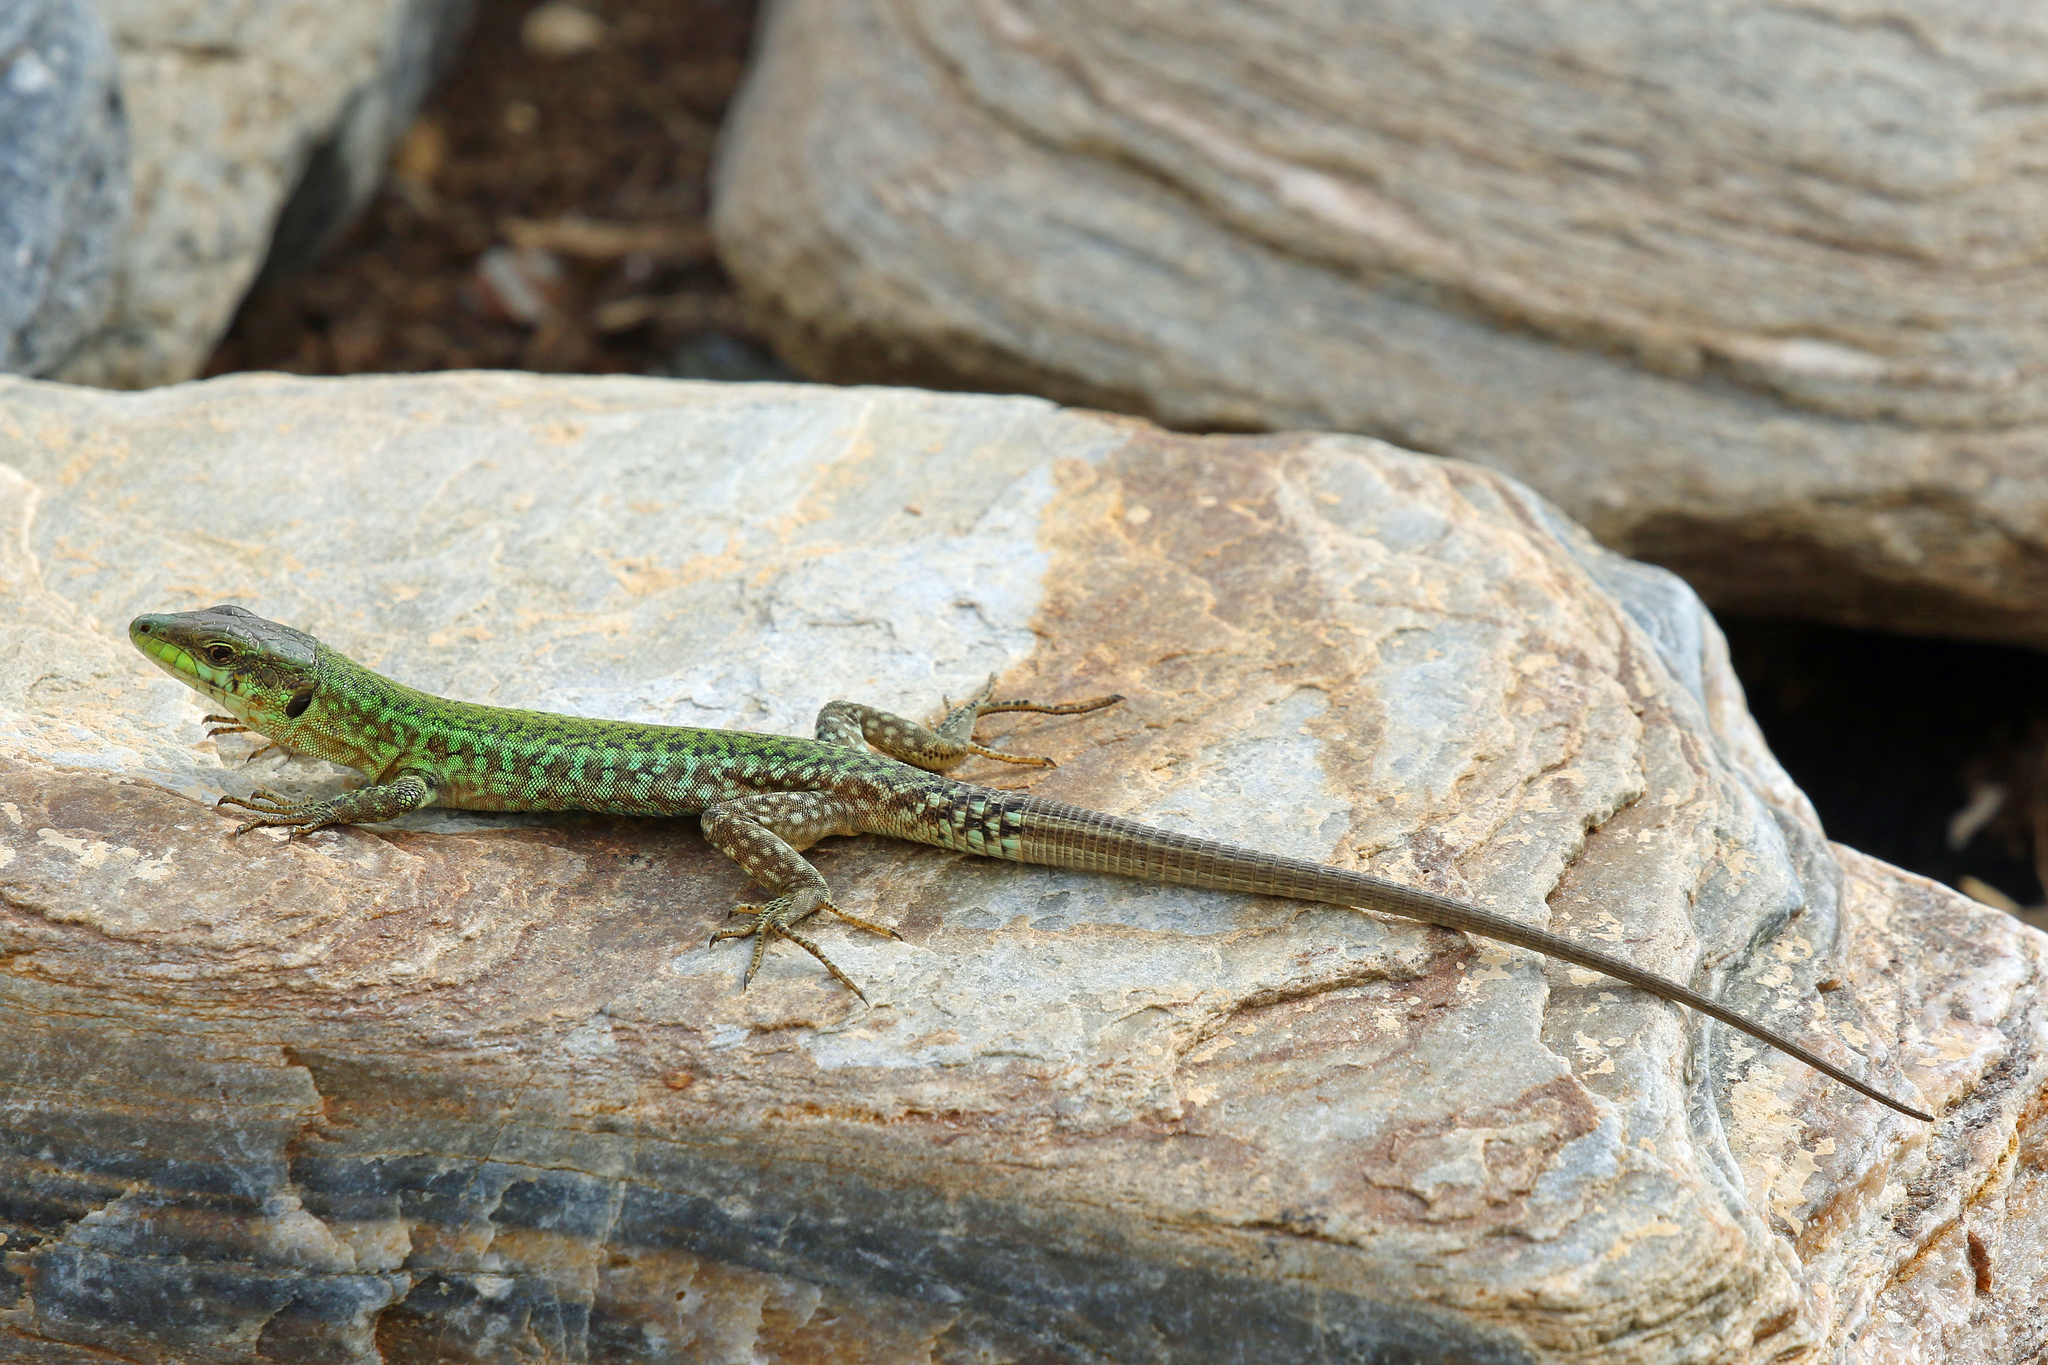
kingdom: Animalia
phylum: Chordata
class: Squamata
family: Lacertidae
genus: Podarcis
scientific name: Podarcis filfolensis
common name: Maltese wall lizard
